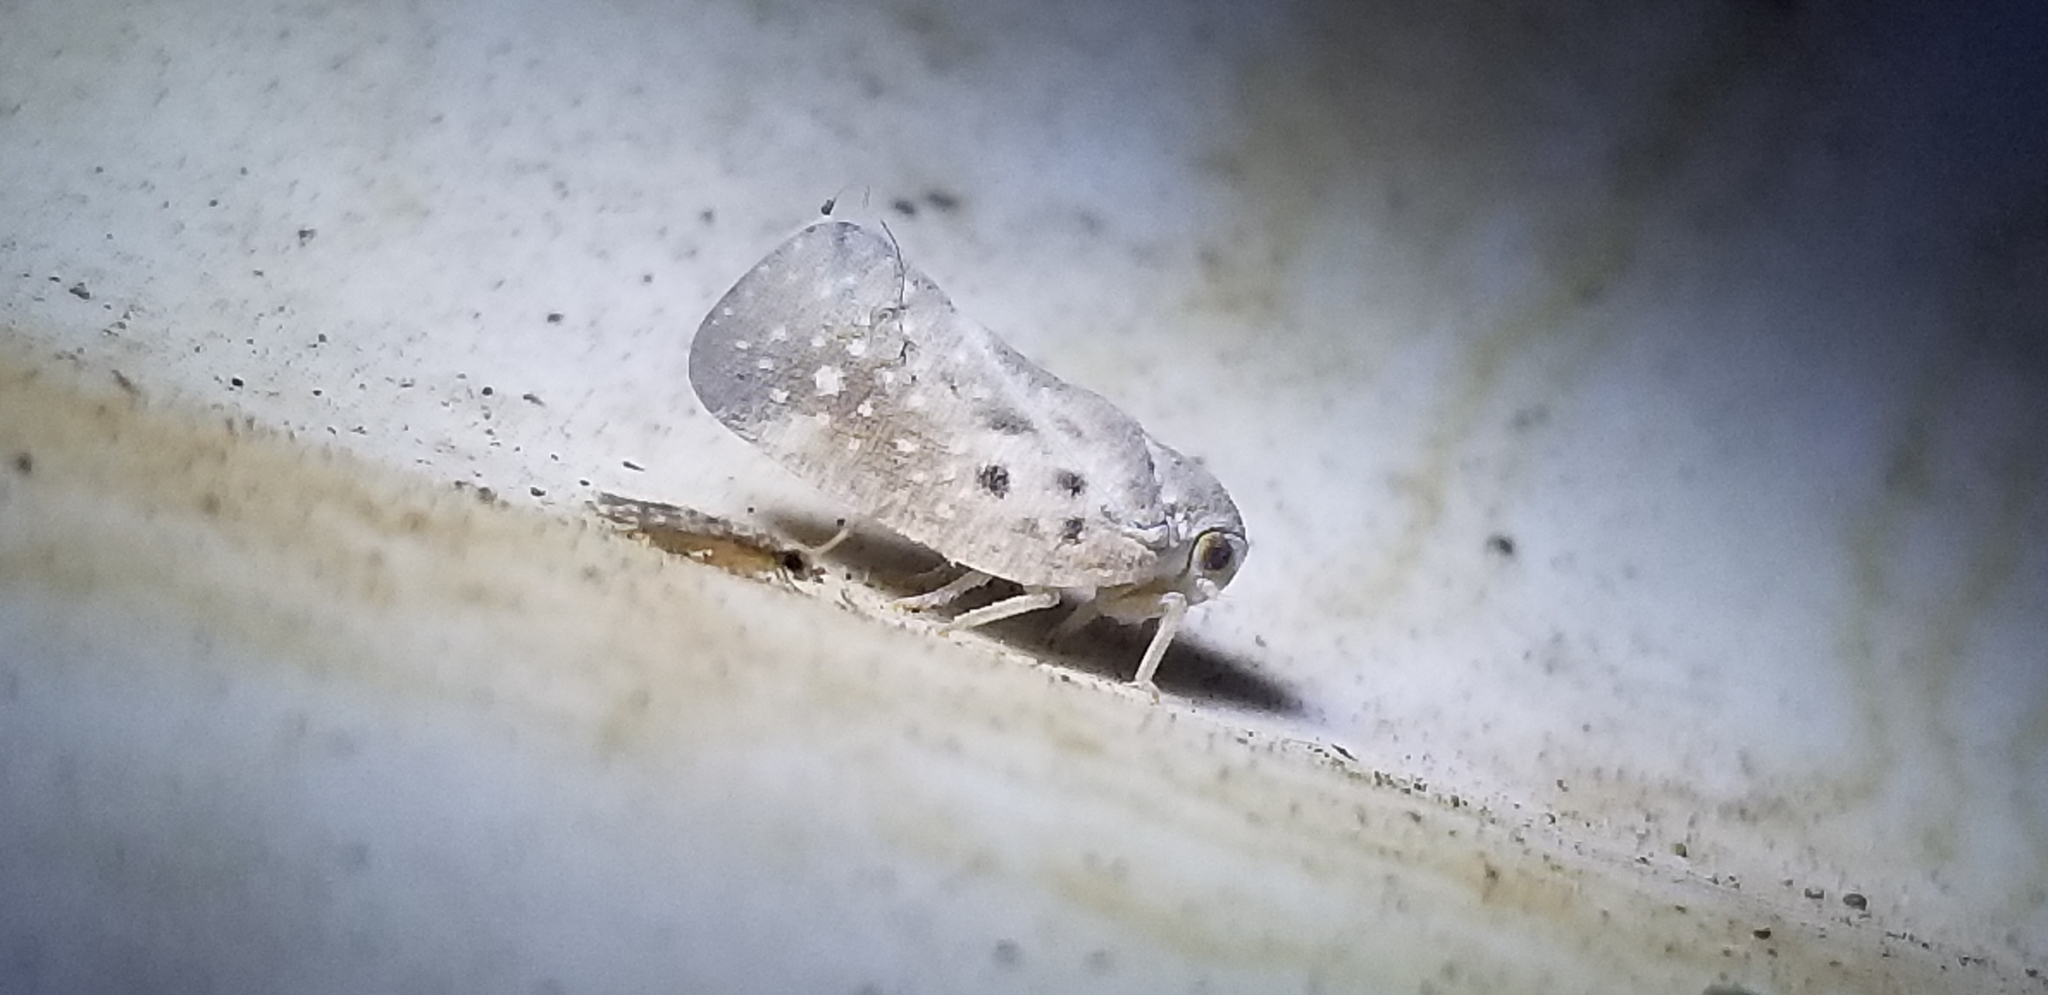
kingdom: Animalia
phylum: Arthropoda
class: Insecta
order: Hemiptera
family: Flatidae
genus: Metcalfa
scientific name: Metcalfa pruinosa
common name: Citrus flatid planthopper
